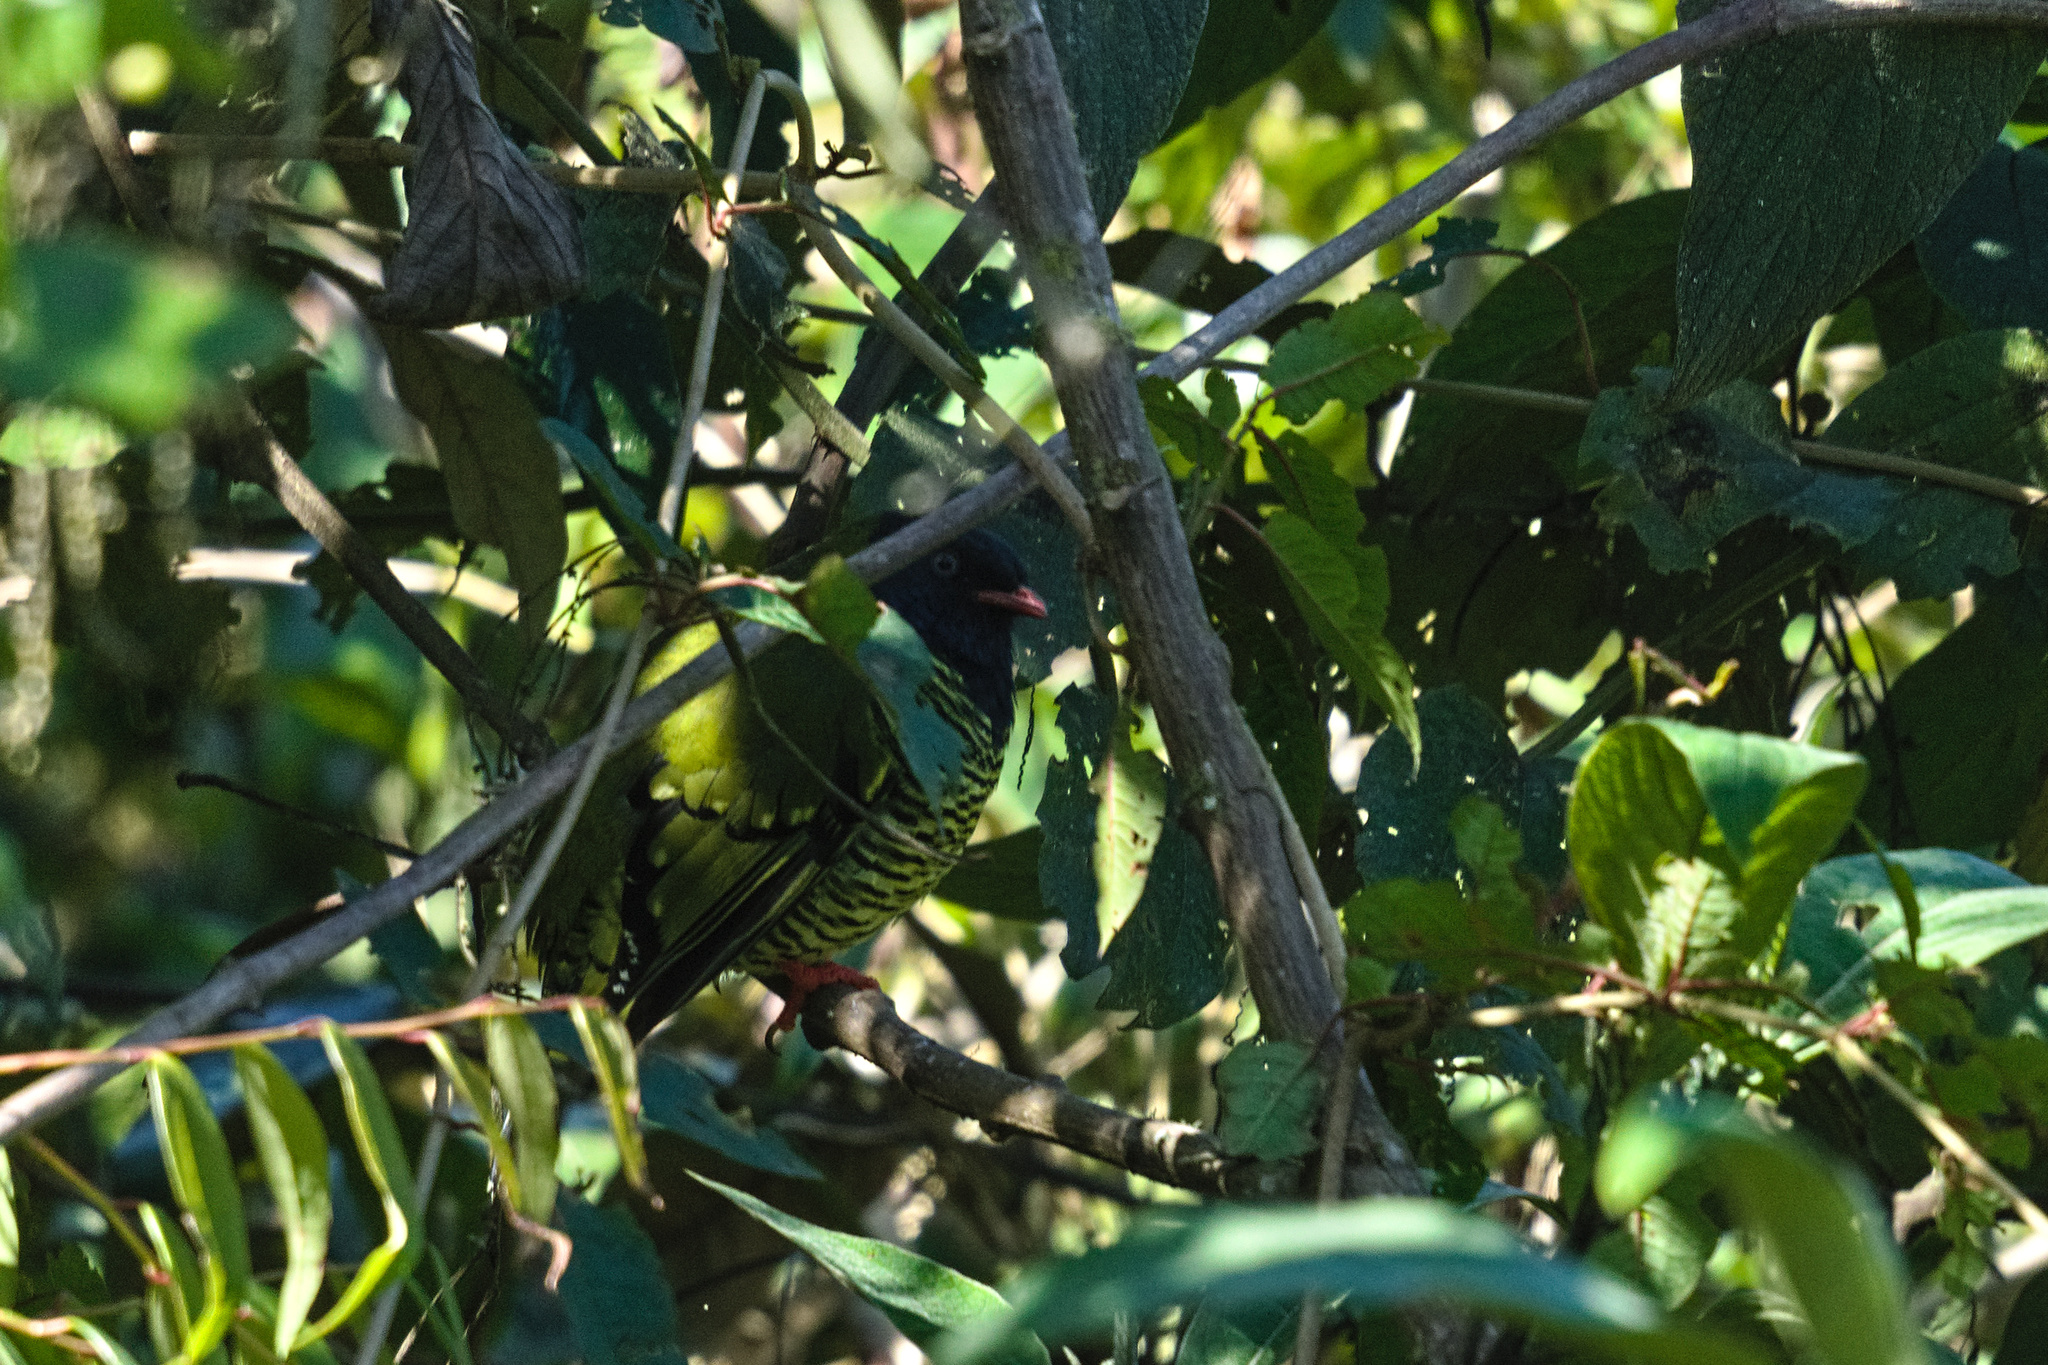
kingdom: Animalia
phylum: Chordata
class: Aves
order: Passeriformes
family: Cotingidae
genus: Pipreola
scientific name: Pipreola arcuata
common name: Barred fruiteater
